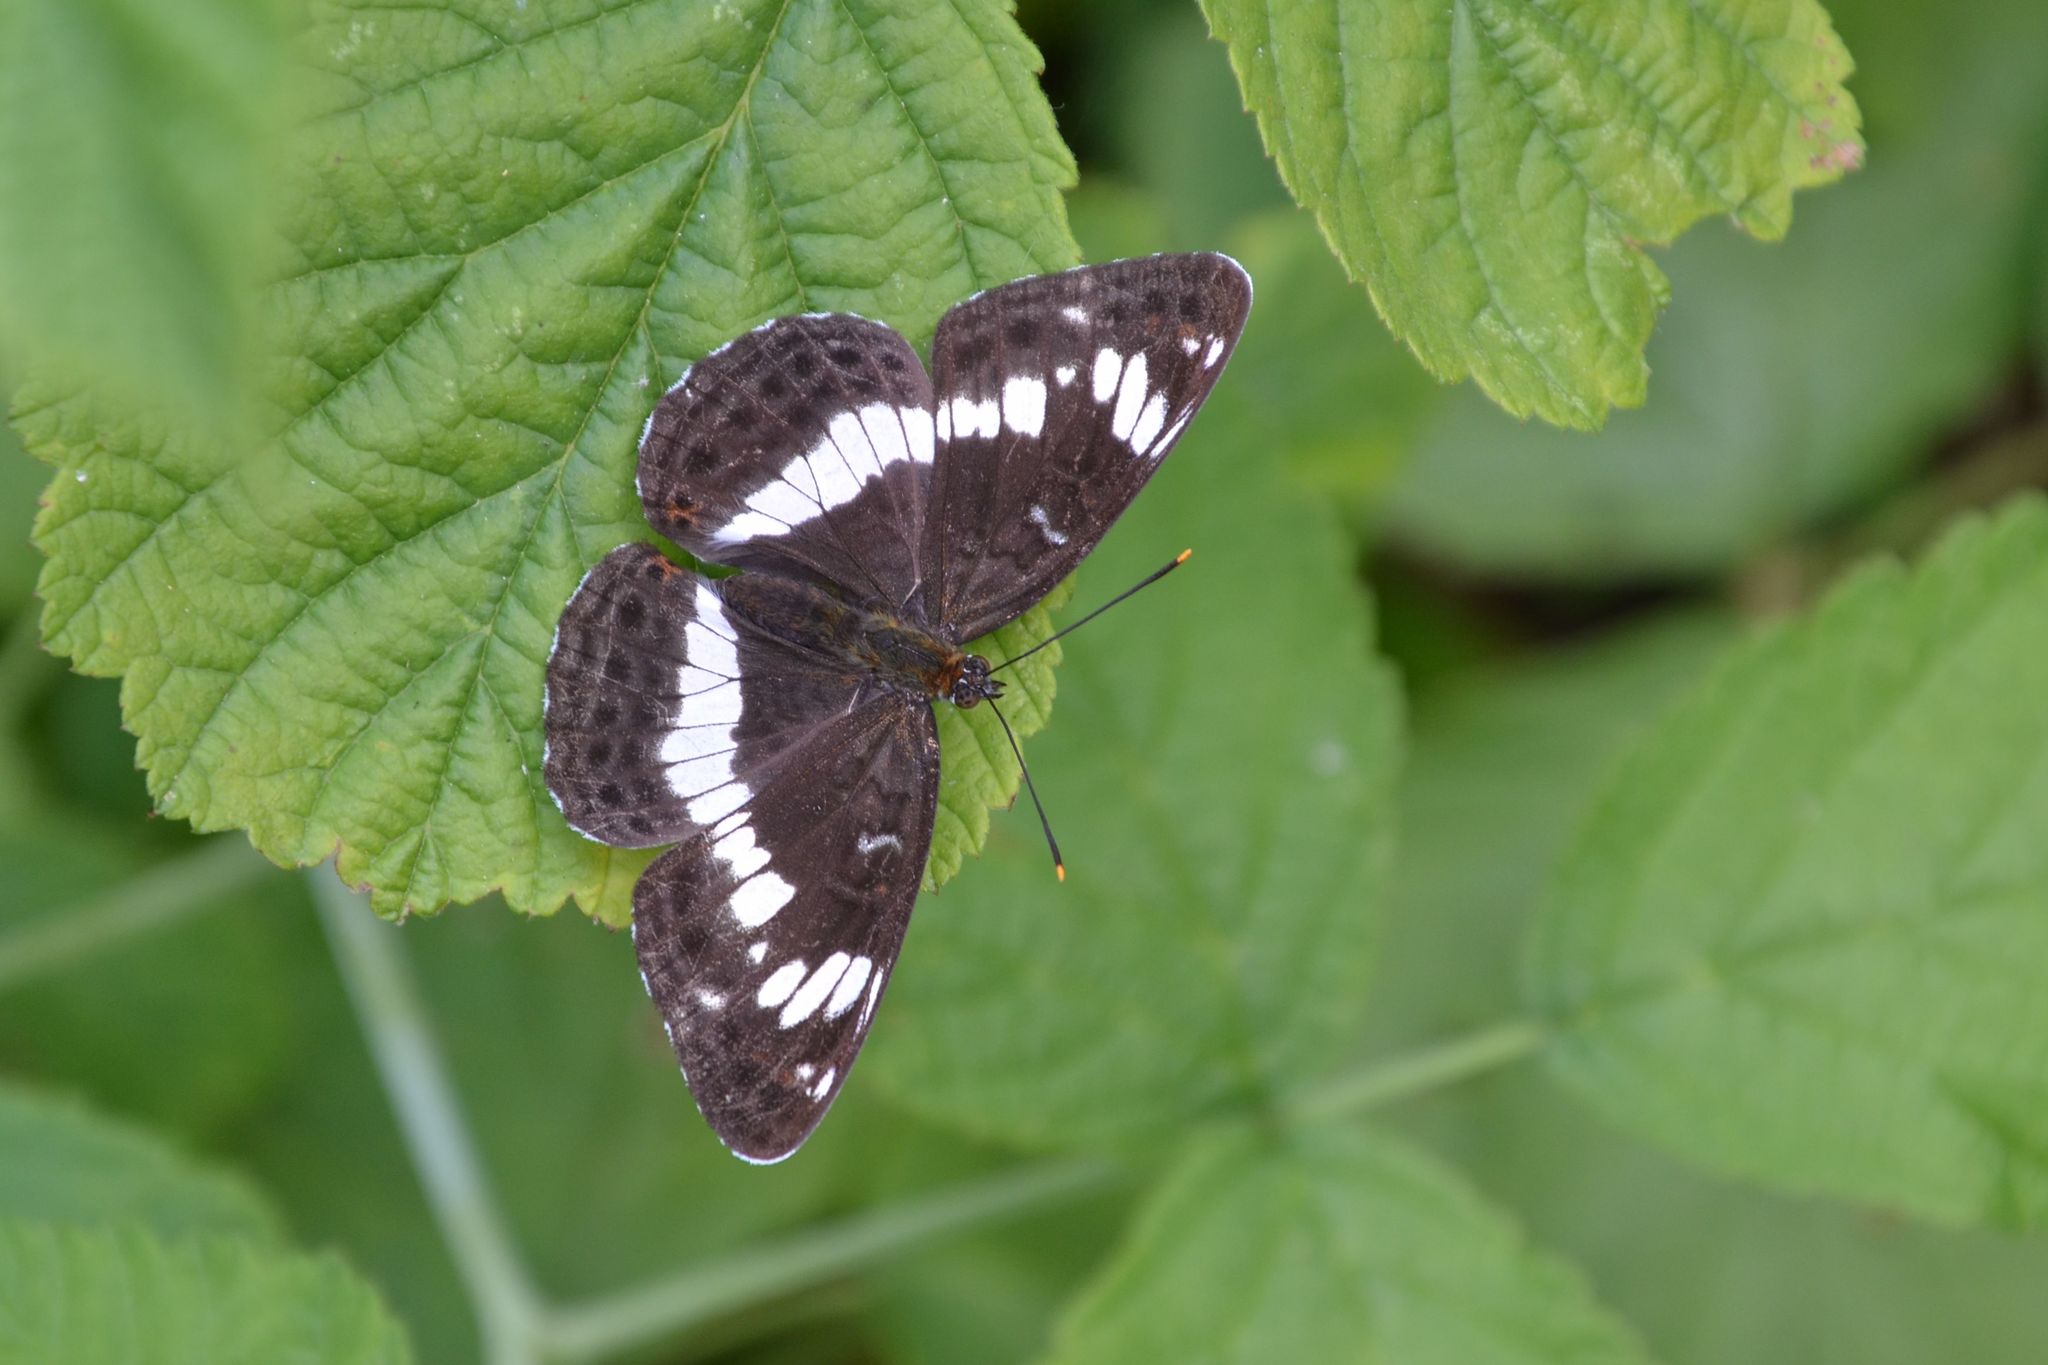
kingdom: Animalia
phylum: Arthropoda
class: Insecta
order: Lepidoptera
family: Nymphalidae
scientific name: Nymphalidae
